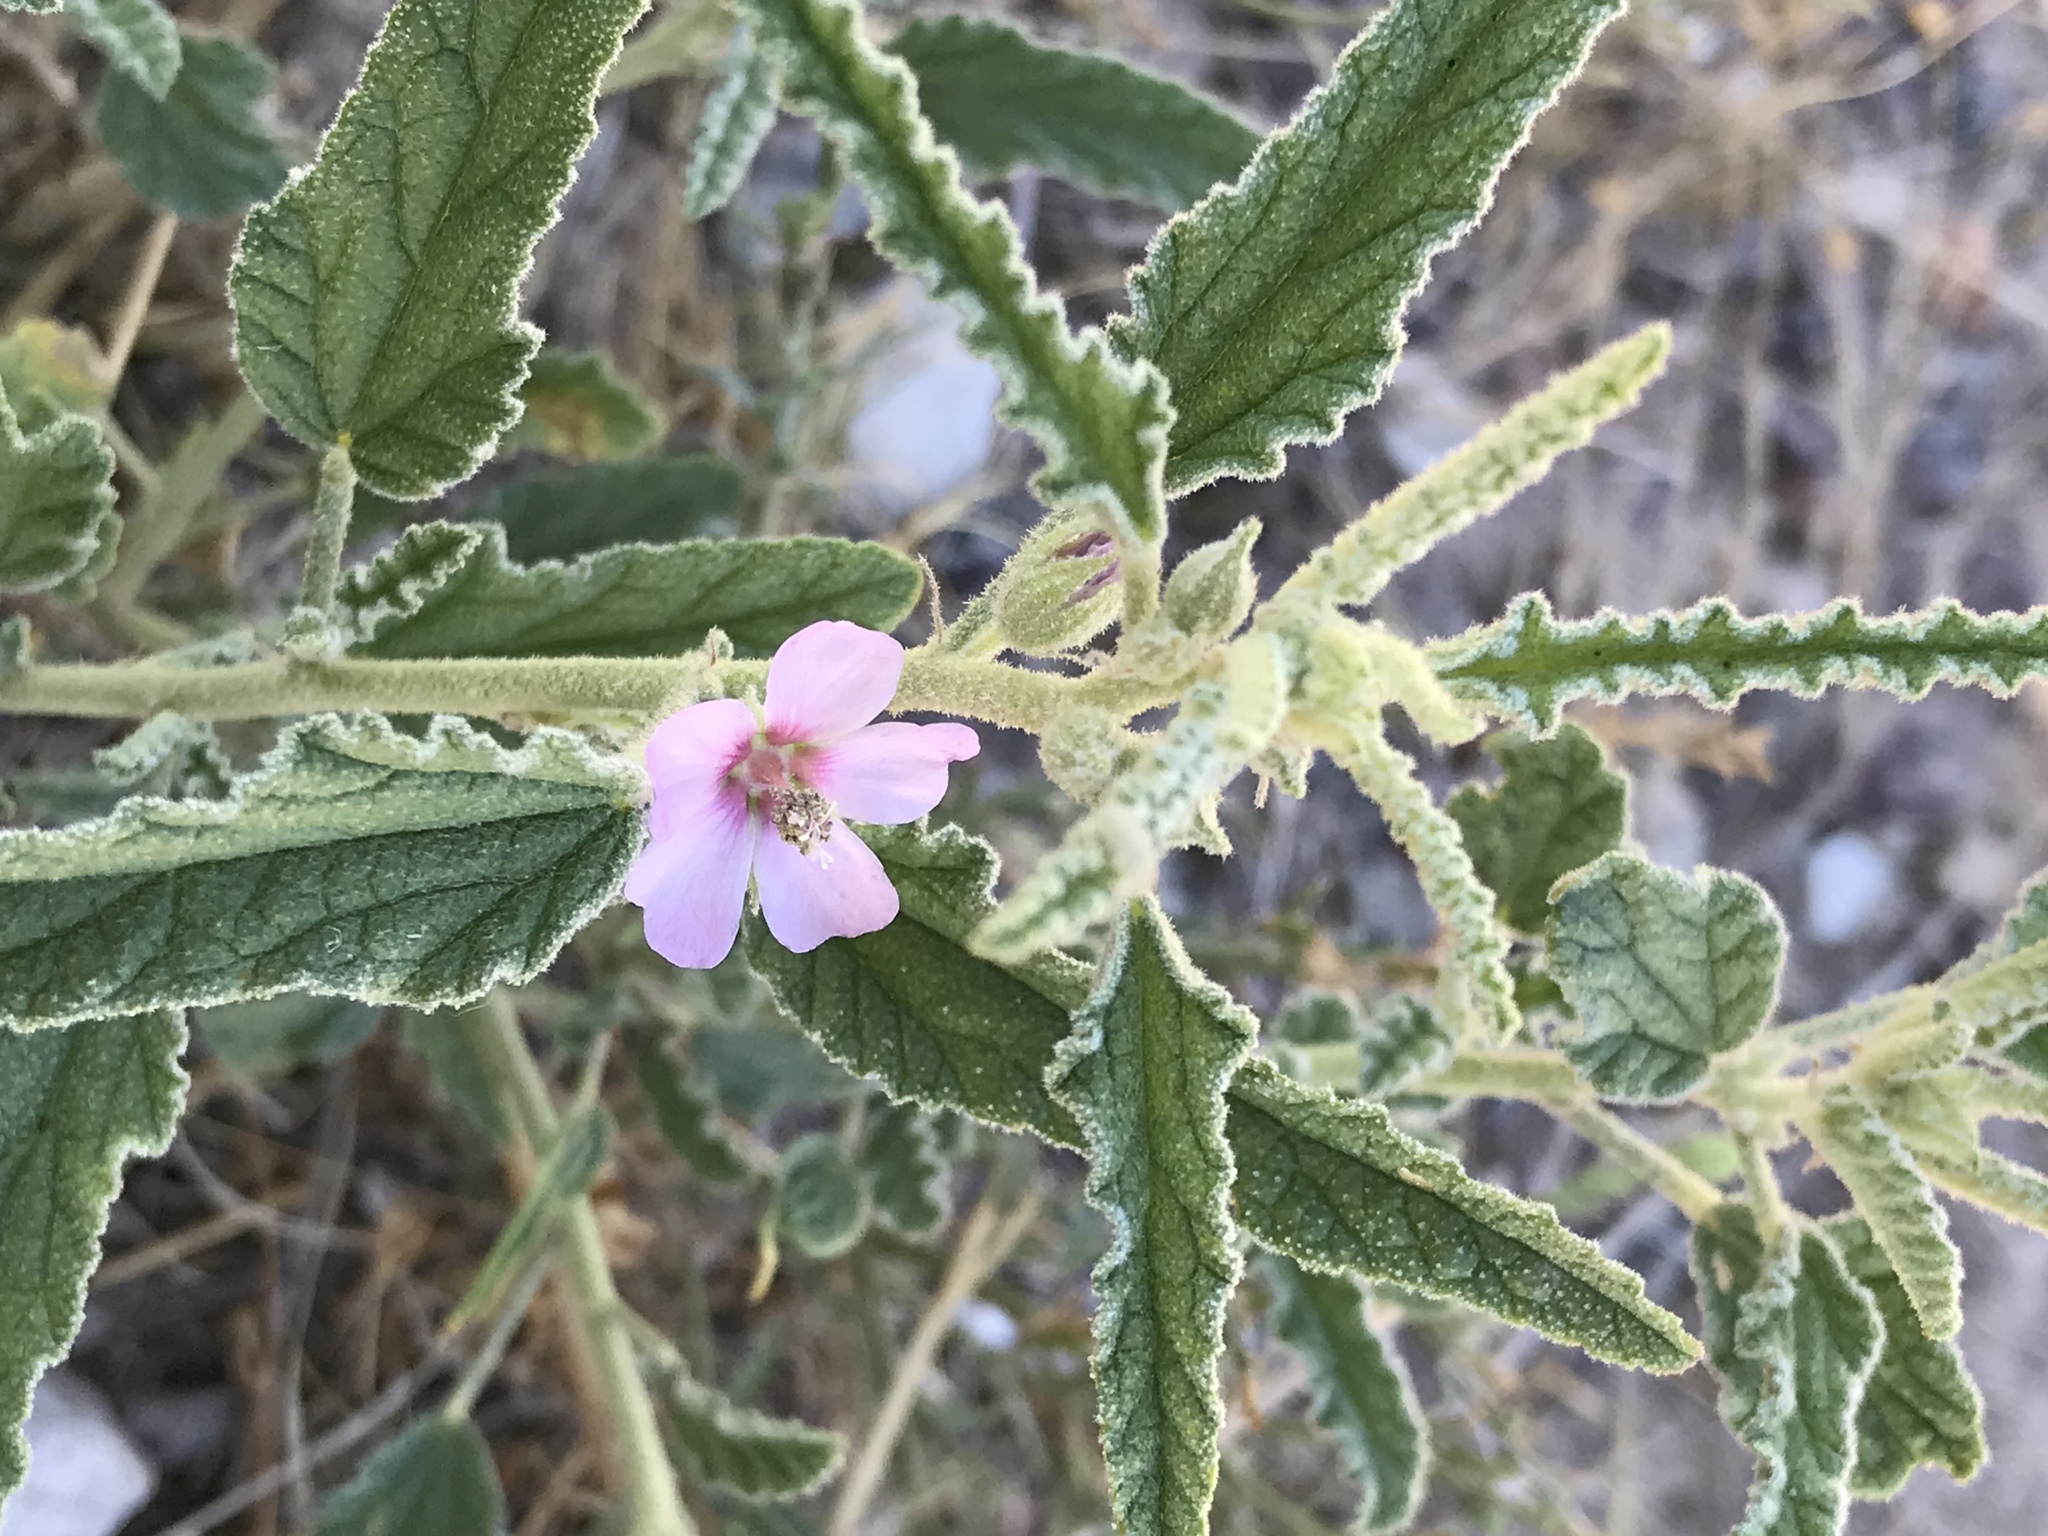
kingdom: Plantae
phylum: Tracheophyta
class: Magnoliopsida
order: Malvales
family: Malvaceae
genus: Sphaeralcea
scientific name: Sphaeralcea angustifolia
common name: Copper globe-mallow
